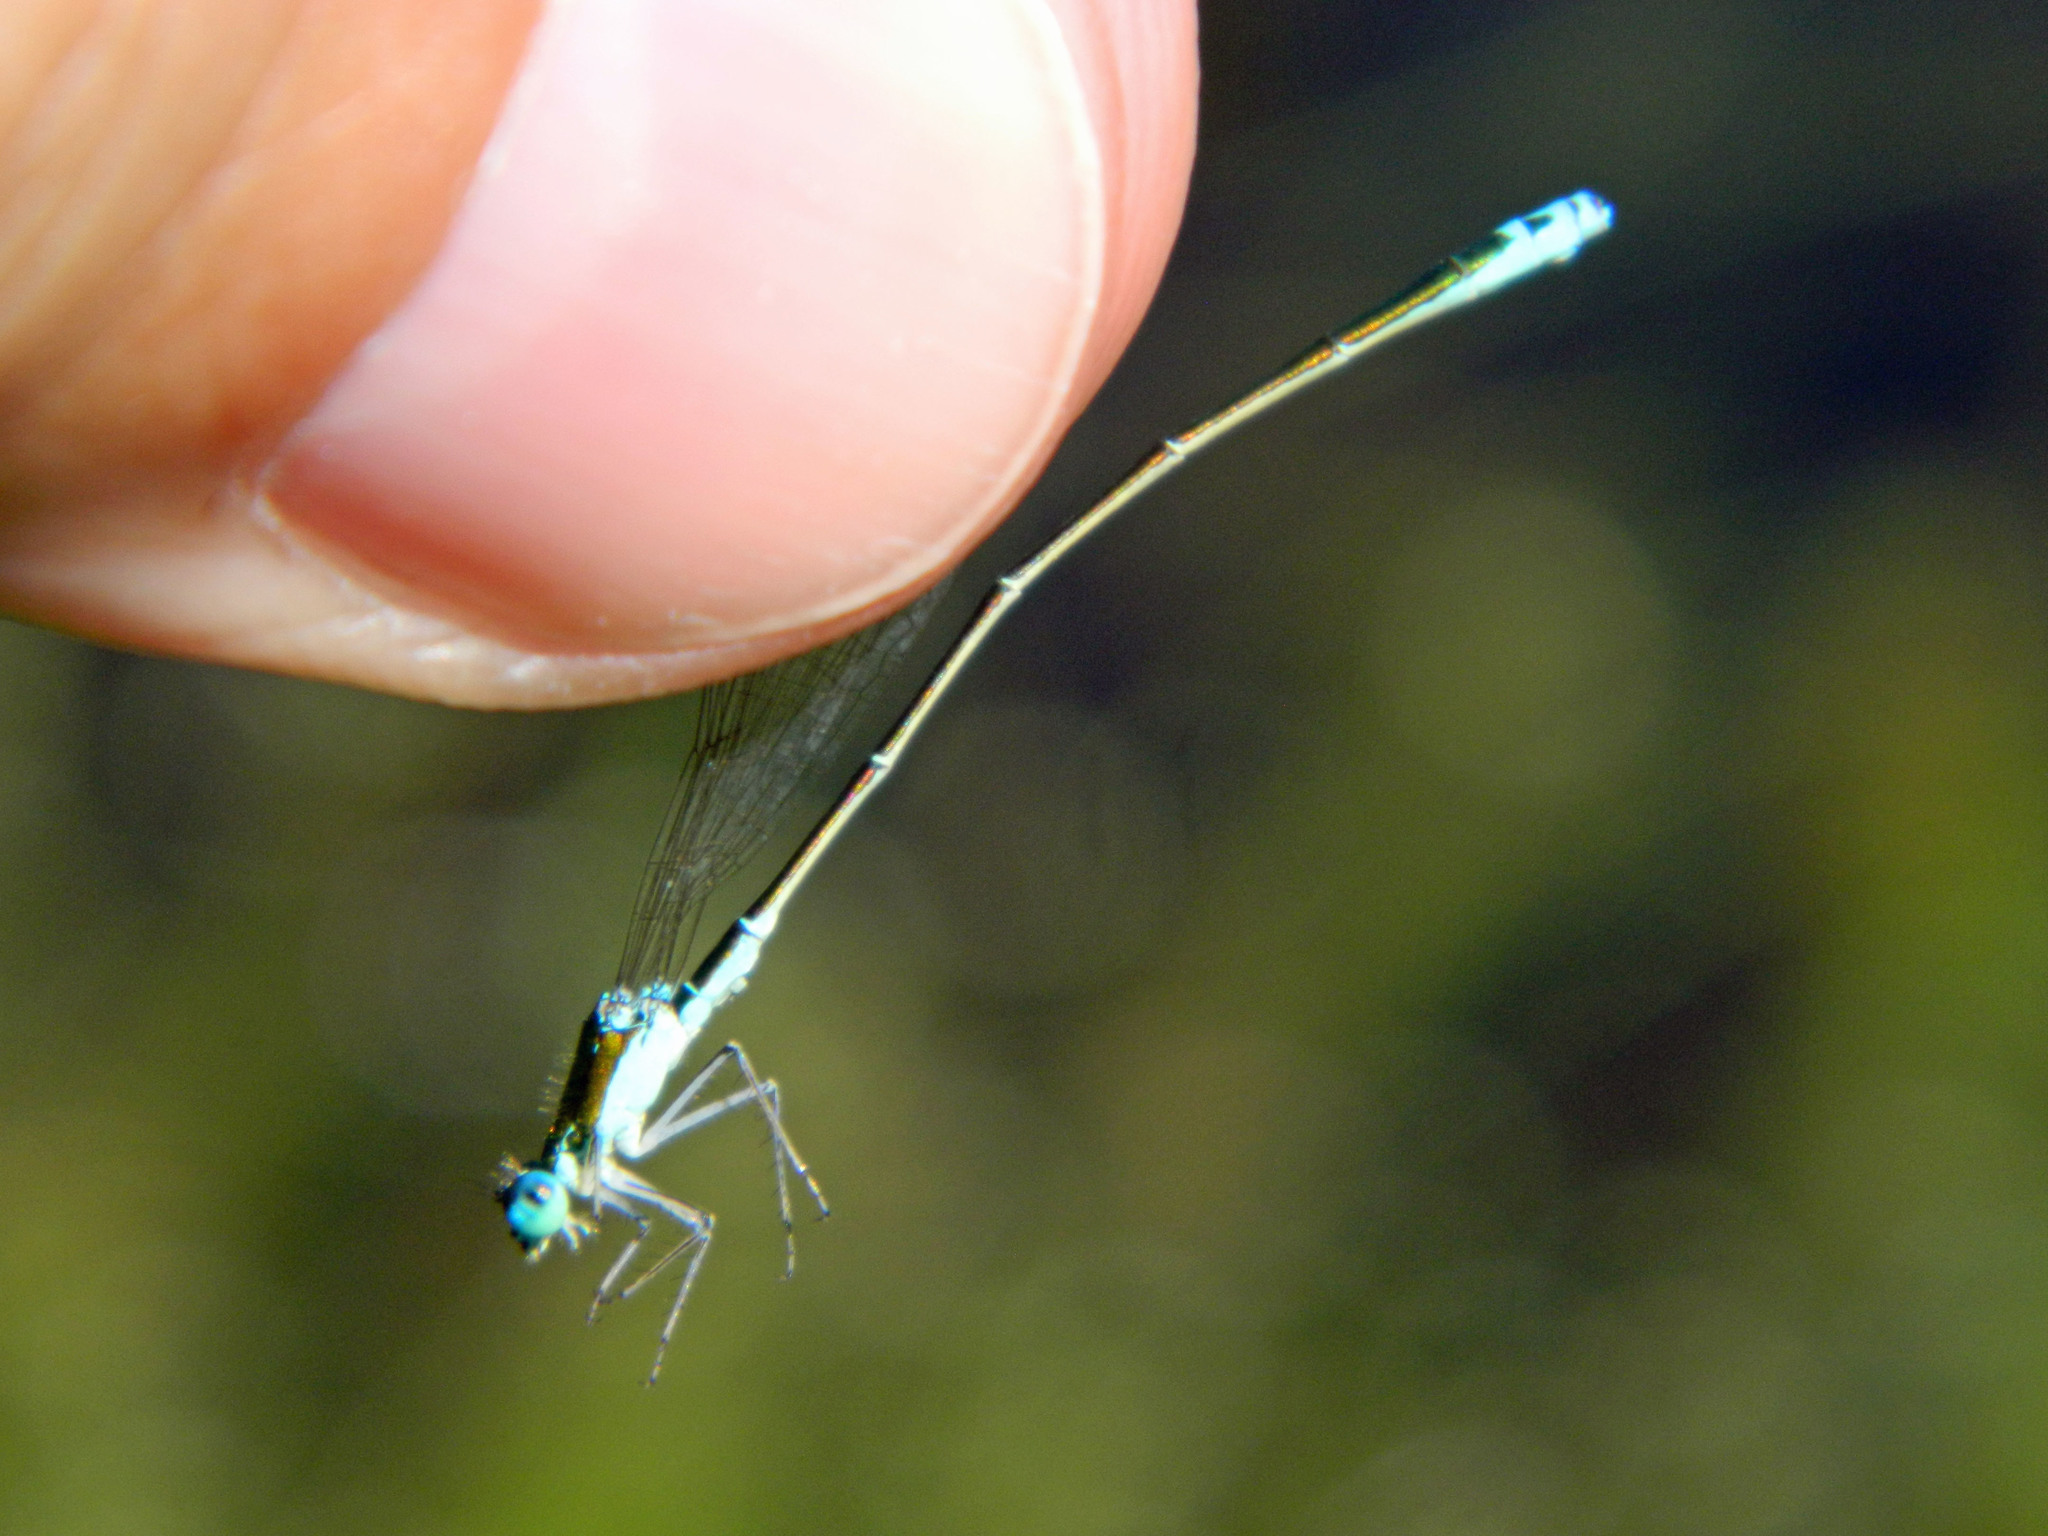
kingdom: Animalia
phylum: Arthropoda
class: Insecta
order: Odonata
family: Coenagrionidae
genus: Nehalennia
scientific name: Nehalennia irene
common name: Sedge sprite
